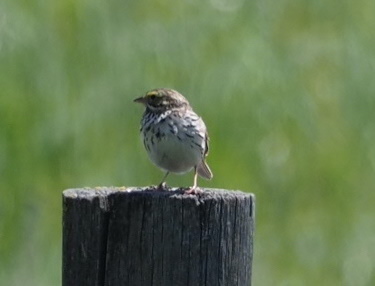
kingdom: Animalia
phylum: Chordata
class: Aves
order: Passeriformes
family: Passerellidae
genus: Passerculus
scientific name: Passerculus sandwichensis
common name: Savannah sparrow
